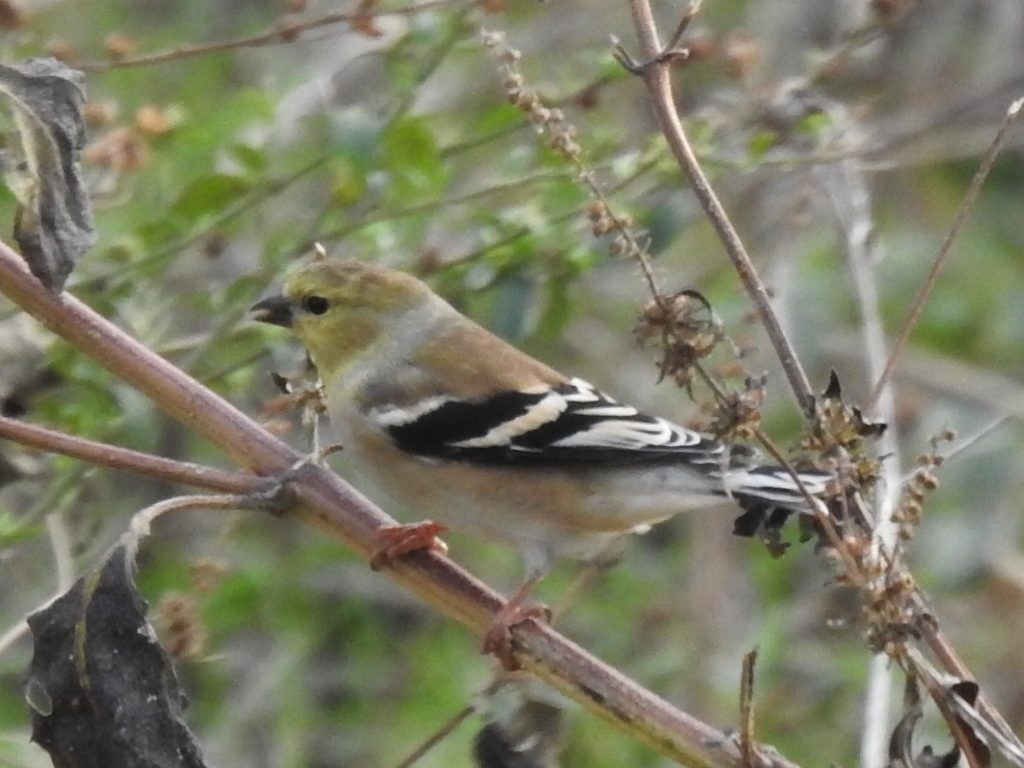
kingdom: Animalia
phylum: Chordata
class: Aves
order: Passeriformes
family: Fringillidae
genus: Spinus
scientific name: Spinus tristis
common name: American goldfinch
